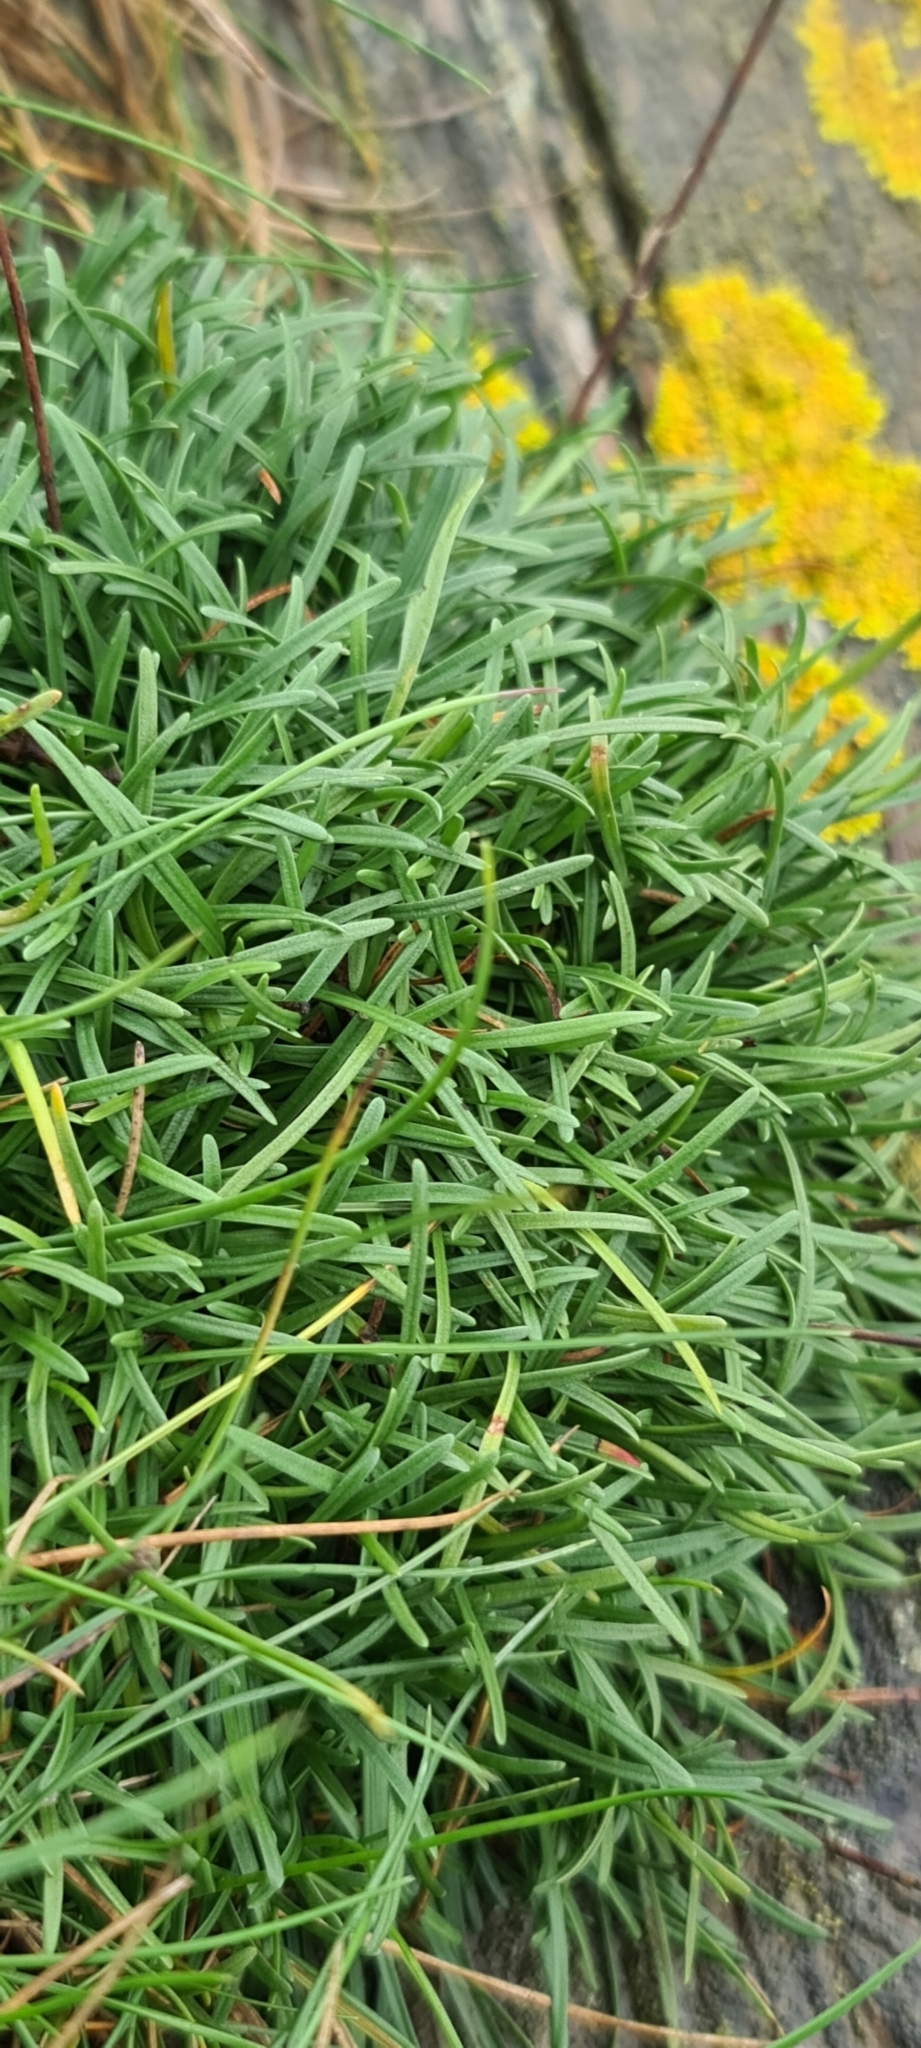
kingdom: Plantae
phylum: Tracheophyta
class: Magnoliopsida
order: Caryophyllales
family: Plumbaginaceae
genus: Armeria
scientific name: Armeria maritima
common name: Thrift
